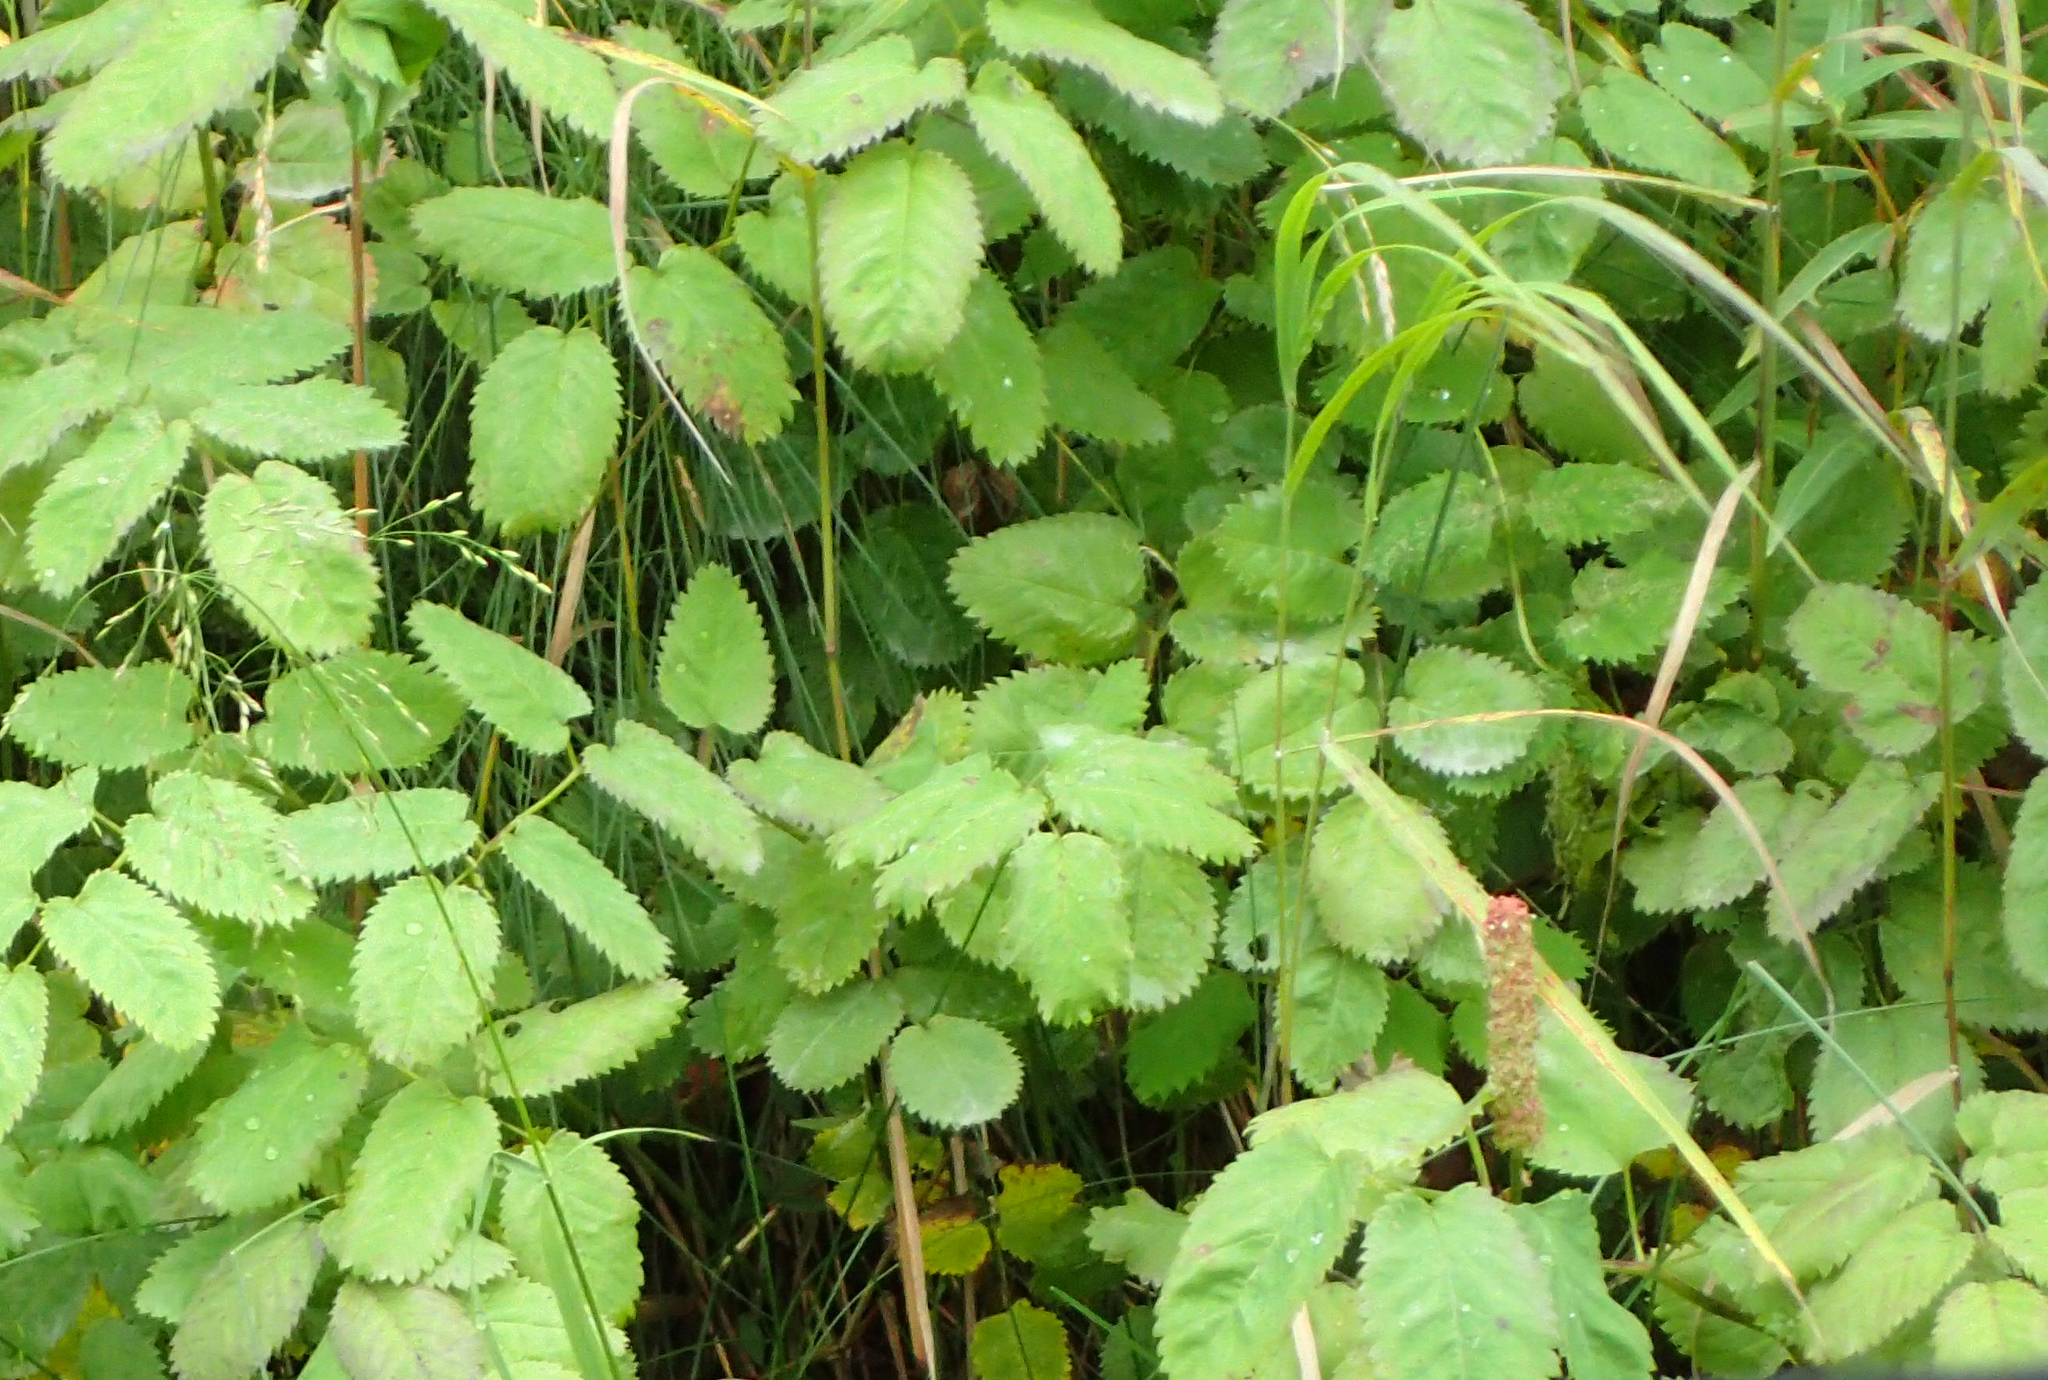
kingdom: Plantae
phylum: Tracheophyta
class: Magnoliopsida
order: Rosales
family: Rosaceae
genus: Sanguisorba
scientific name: Sanguisorba stipulata
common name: Sitka burnet
